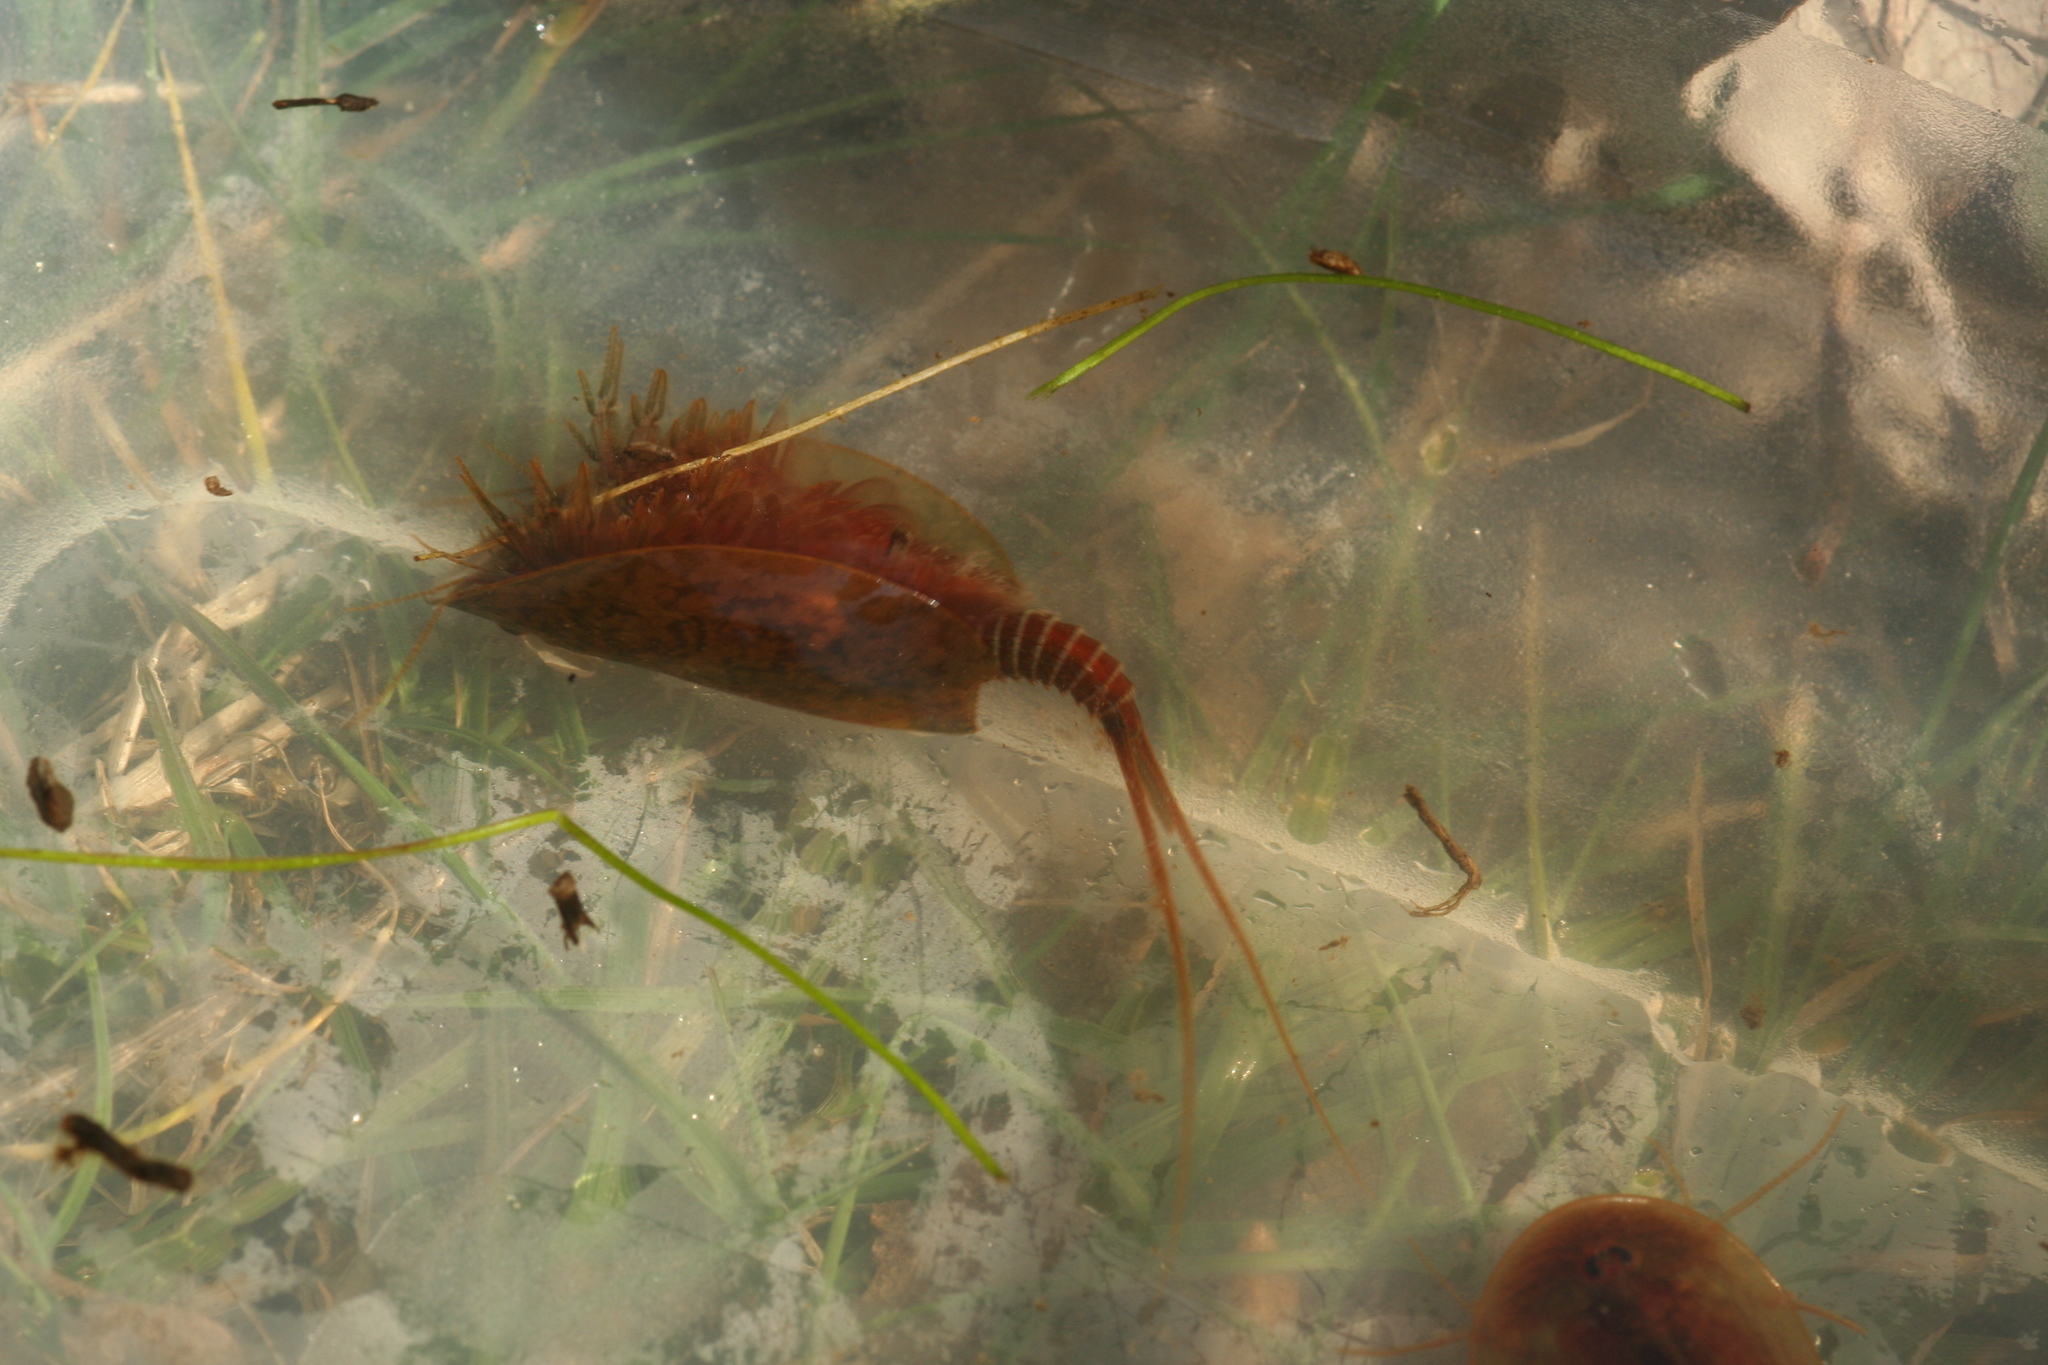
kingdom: Animalia
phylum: Arthropoda
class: Branchiopoda
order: Notostraca
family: Triopsidae
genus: Lepidurus
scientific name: Lepidurus apus
